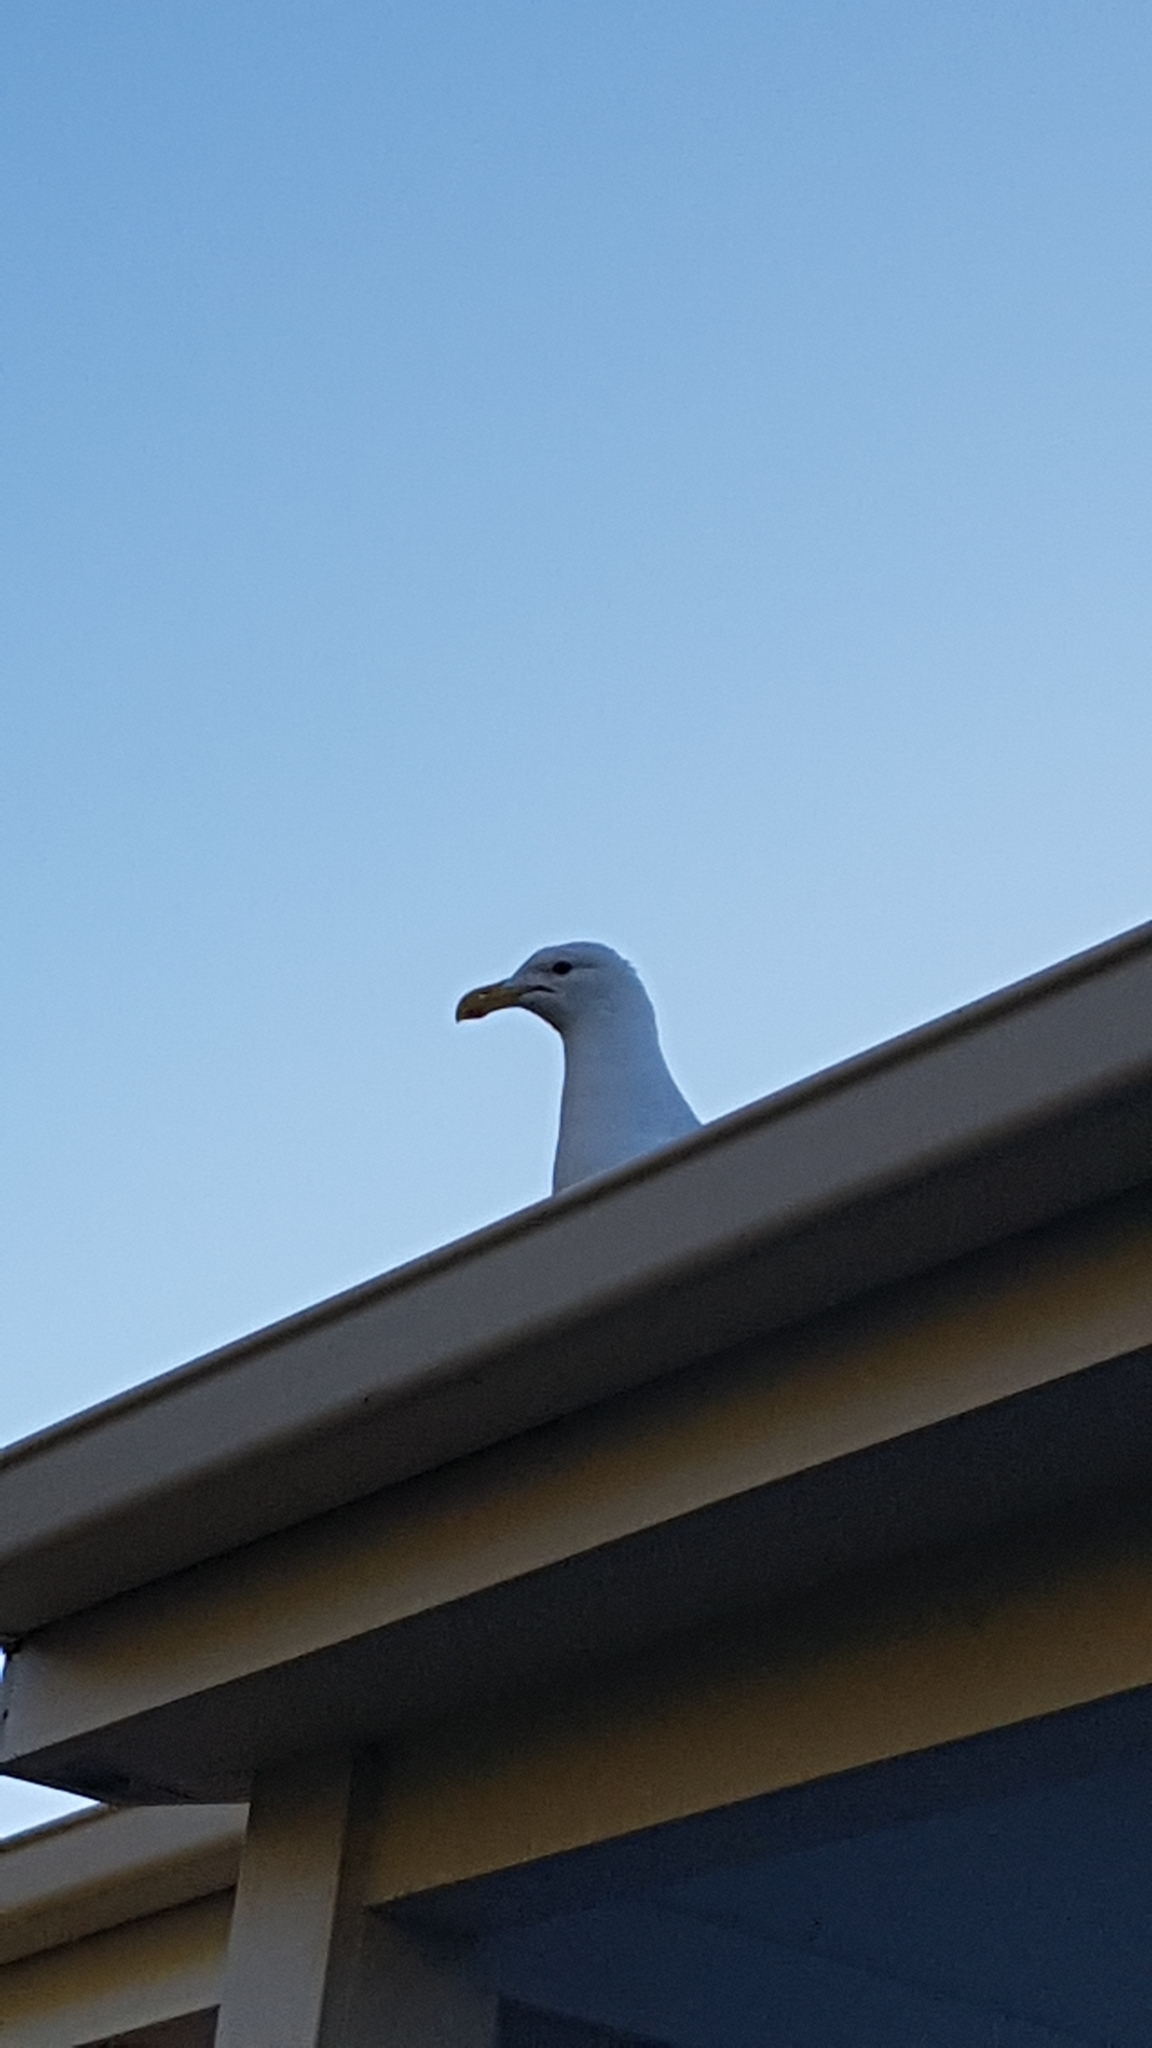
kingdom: Animalia
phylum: Chordata
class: Aves
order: Charadriiformes
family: Laridae
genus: Larus
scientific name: Larus dominicanus
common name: Kelp gull
